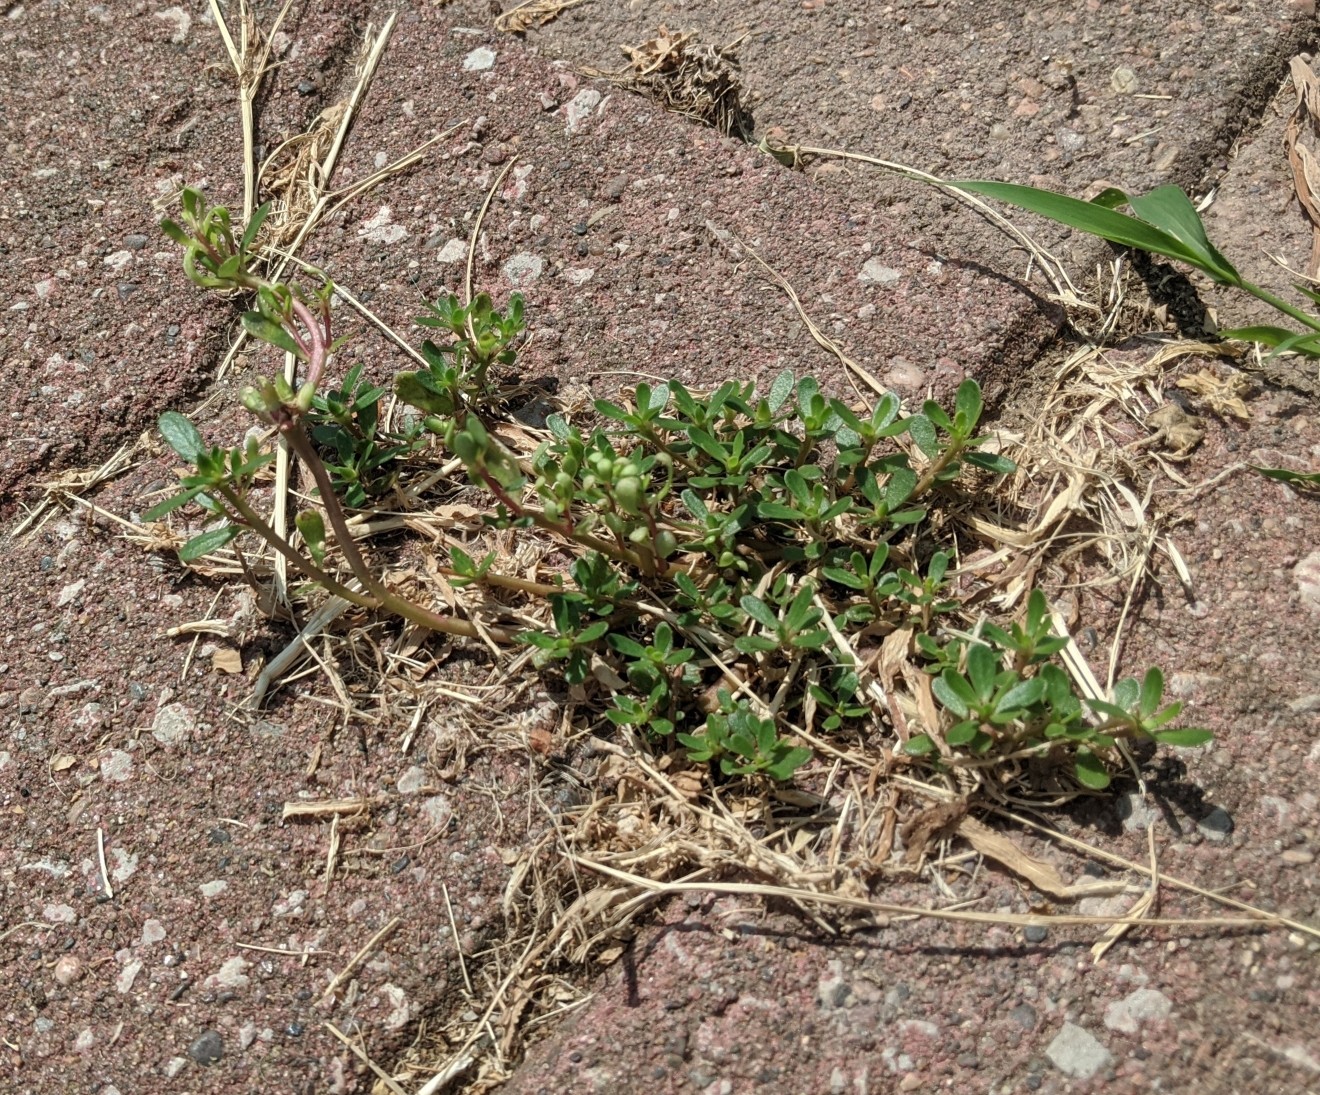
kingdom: Plantae
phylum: Tracheophyta
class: Magnoliopsida
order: Caryophyllales
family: Portulacaceae
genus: Portulaca
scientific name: Portulaca oleracea
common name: Common purslane
